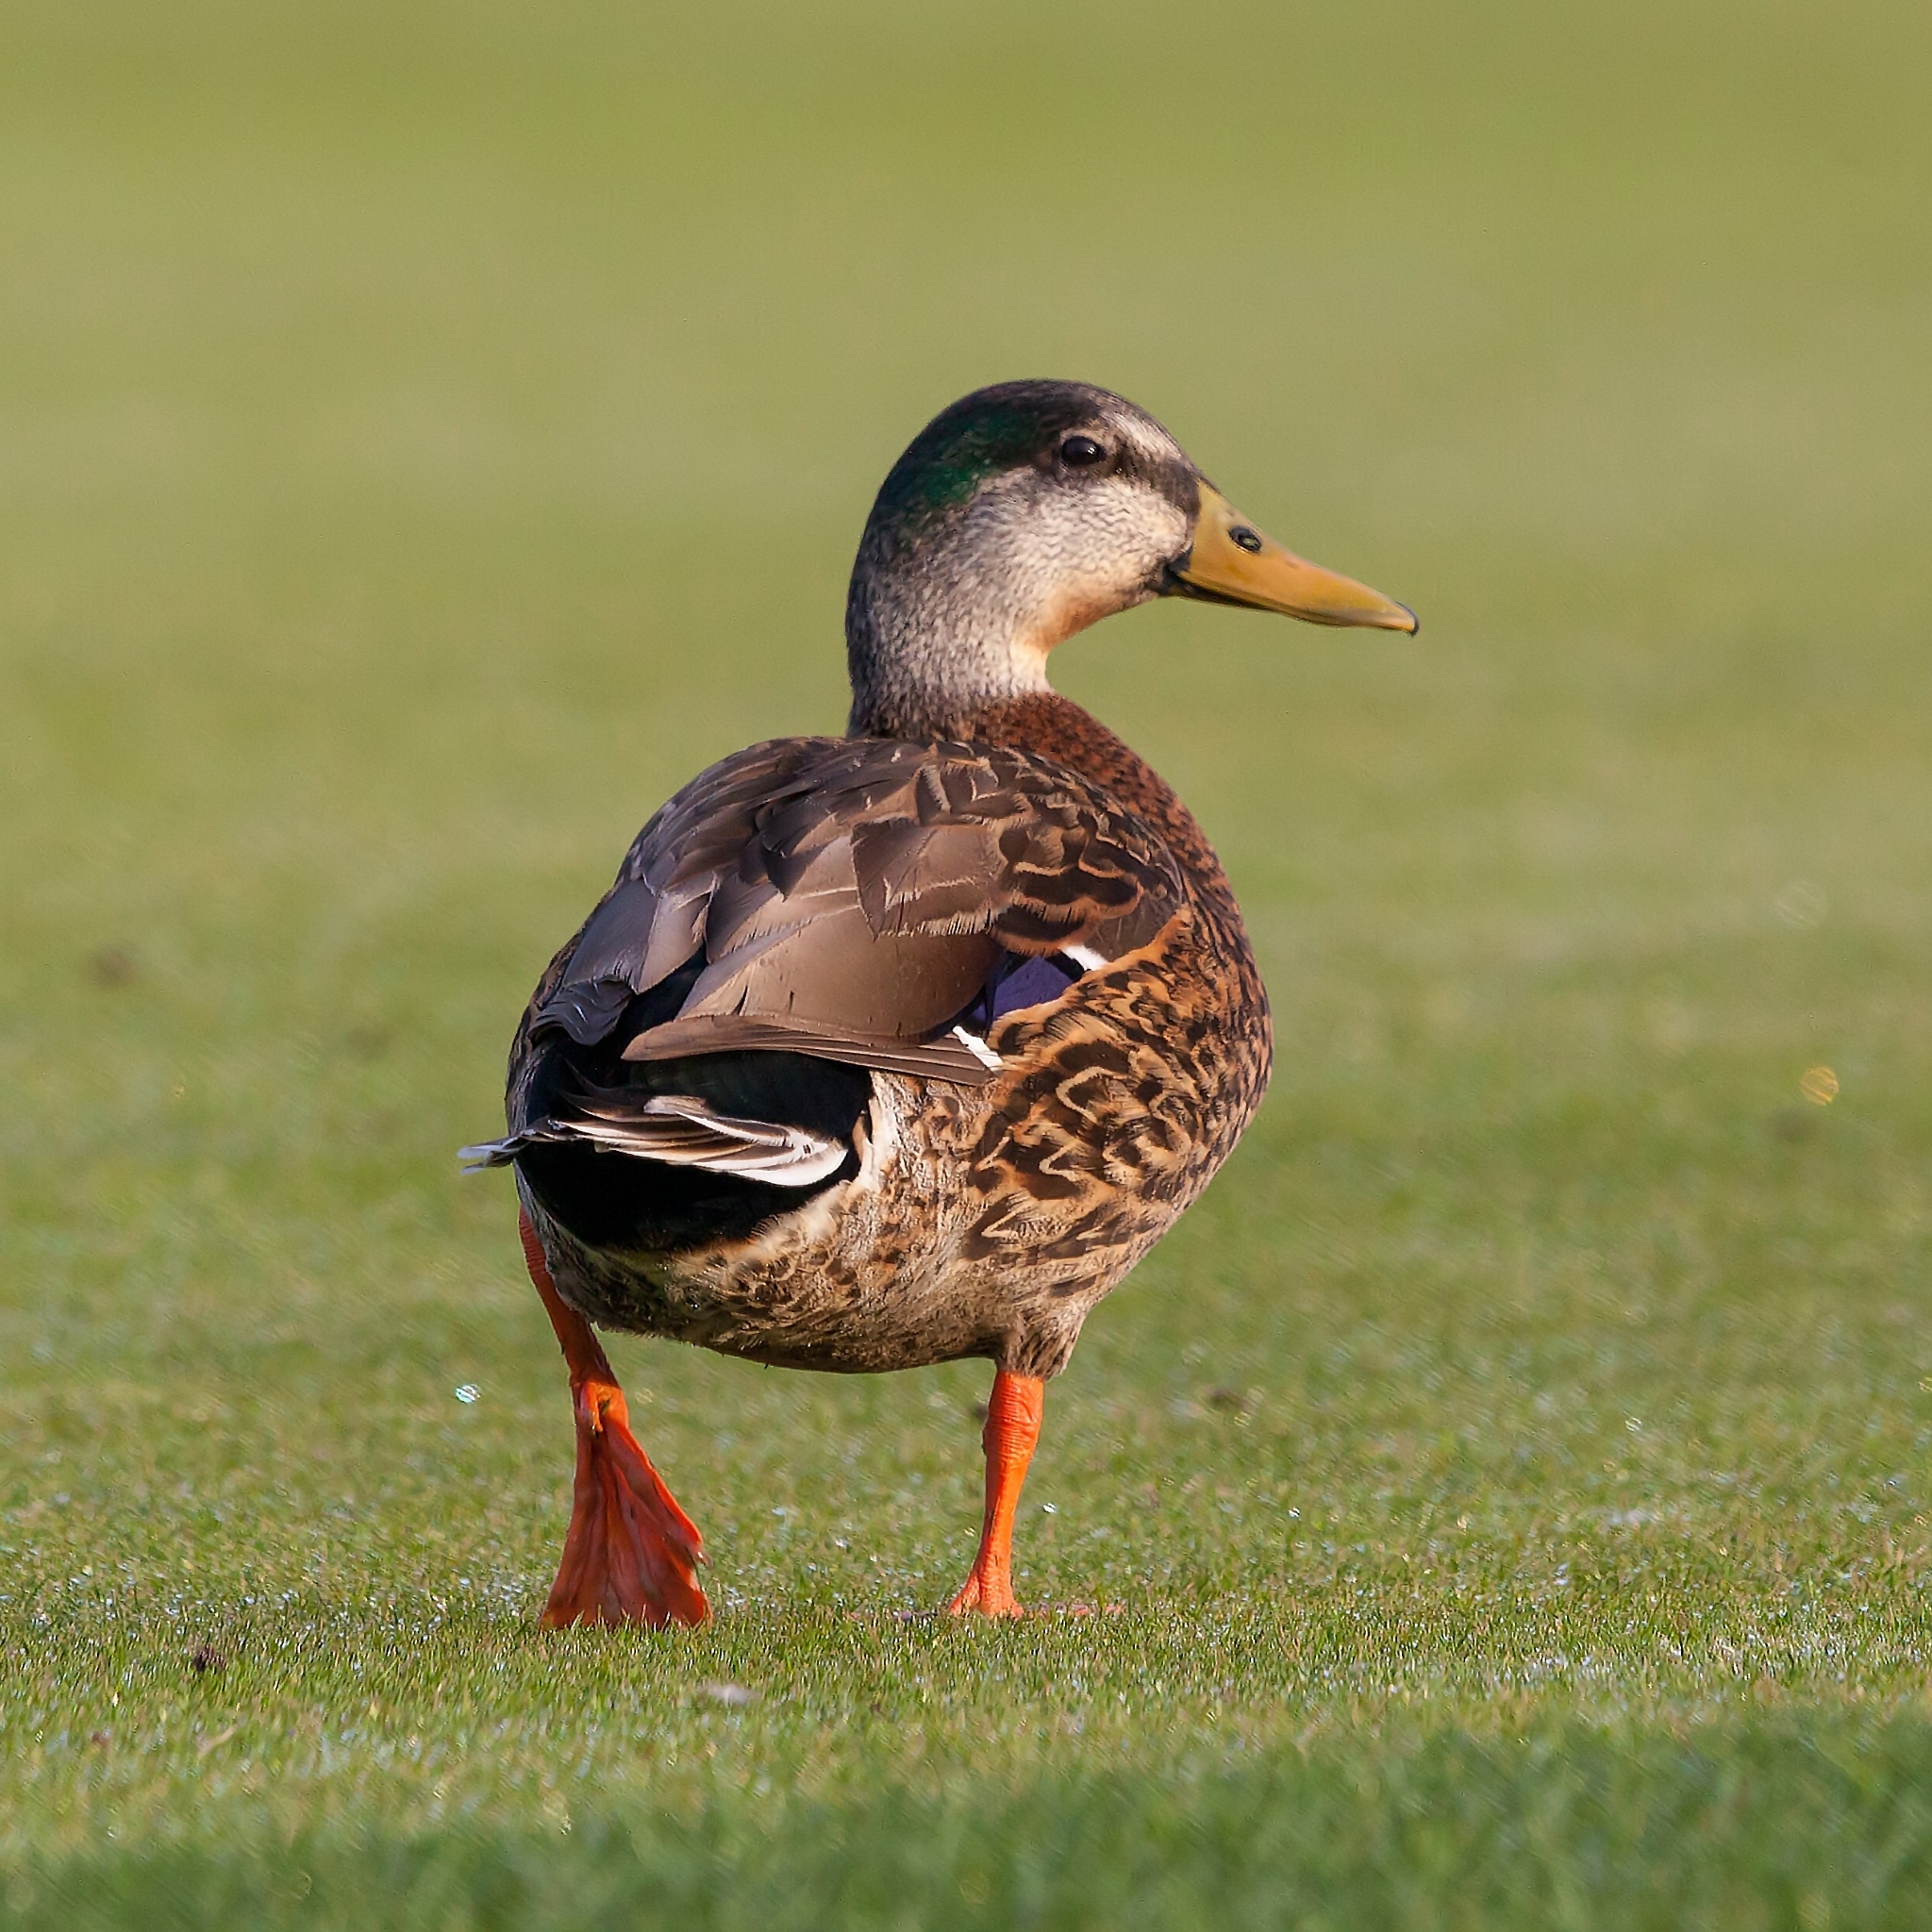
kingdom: Animalia
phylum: Chordata
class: Aves
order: Anseriformes
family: Anatidae
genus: Anas
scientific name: Anas platyrhynchos
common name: Mallard
